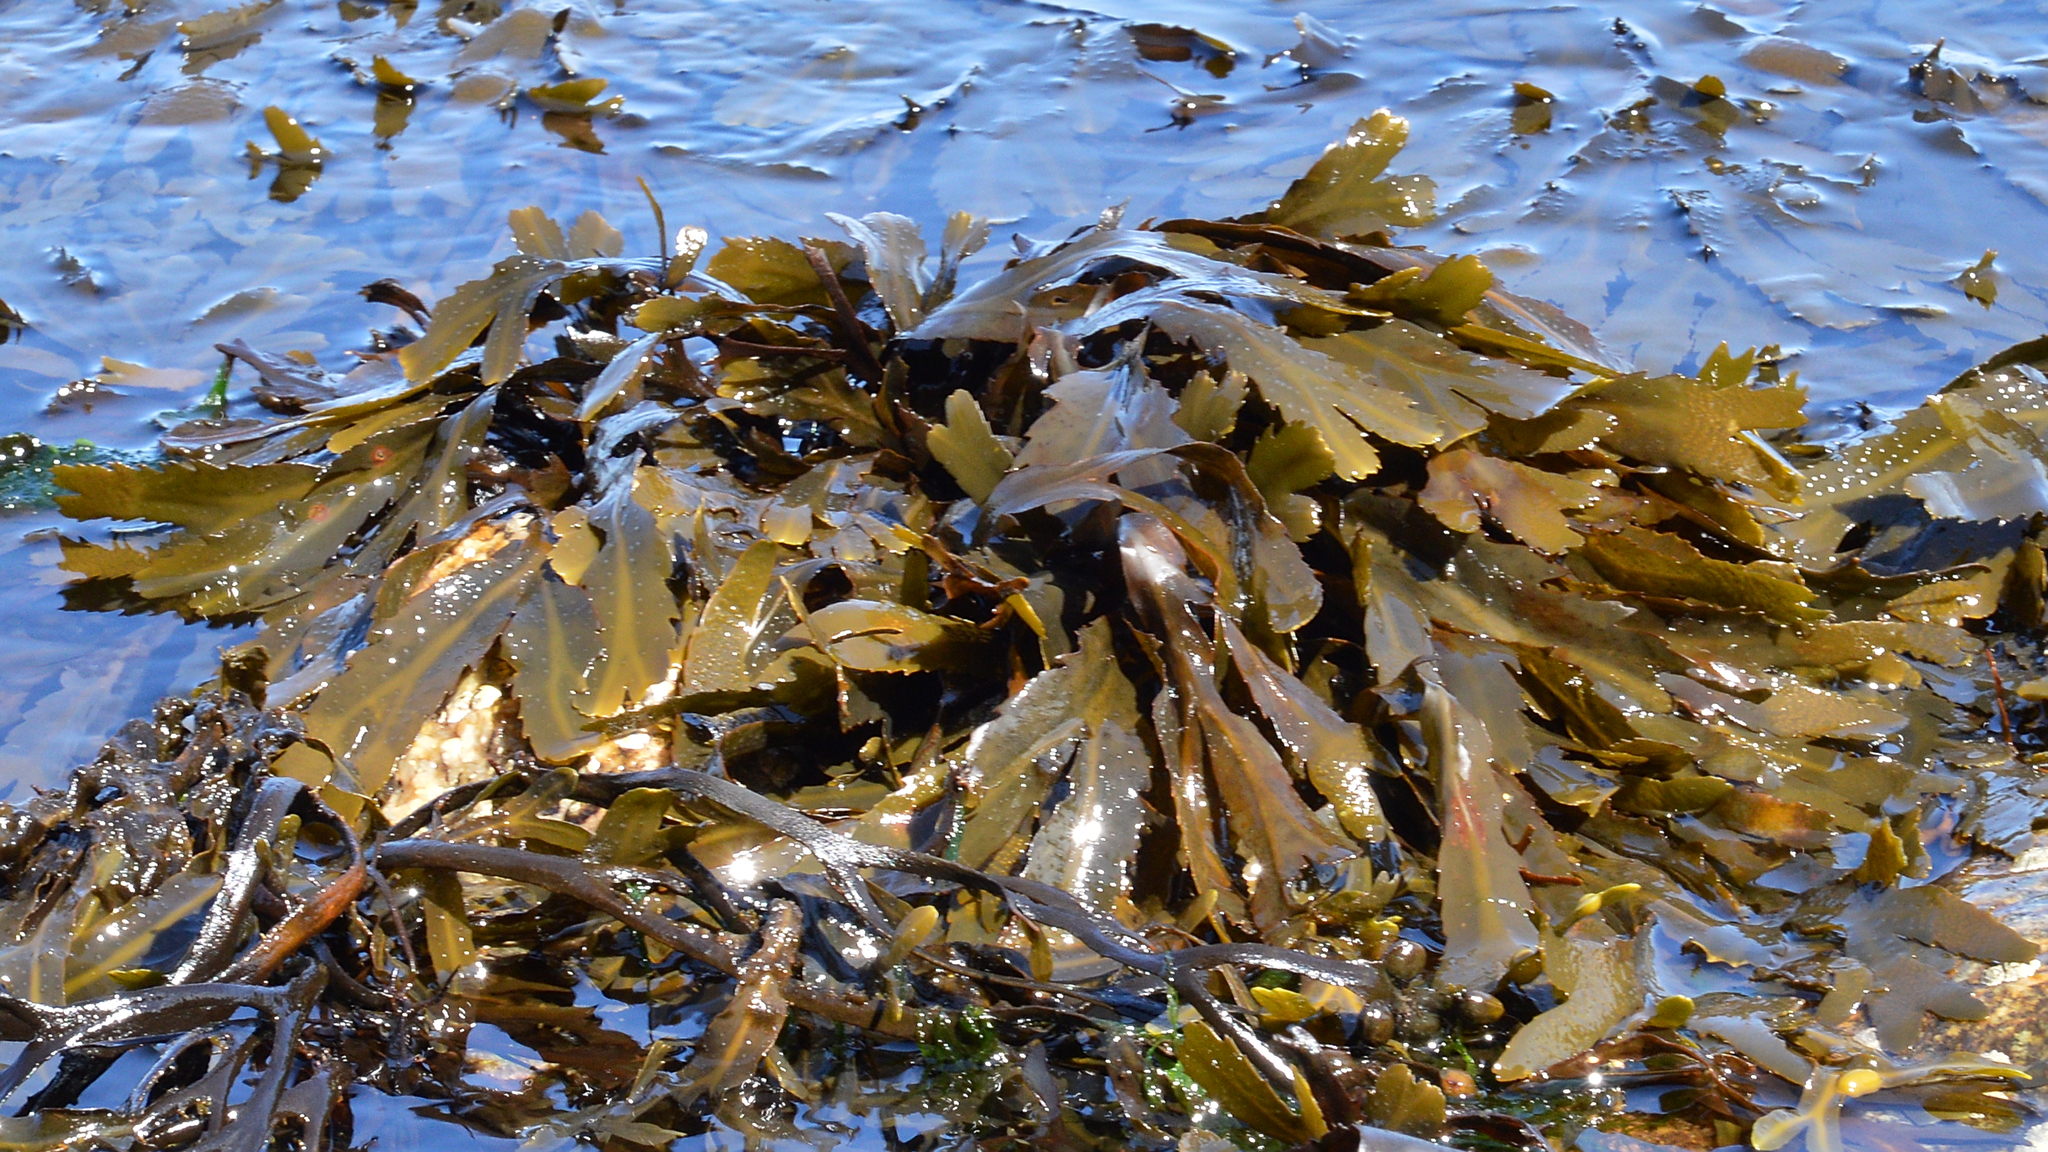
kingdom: Chromista
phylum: Ochrophyta
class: Phaeophyceae
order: Fucales
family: Fucaceae
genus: Fucus
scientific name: Fucus serratus
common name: Toothed wrack
